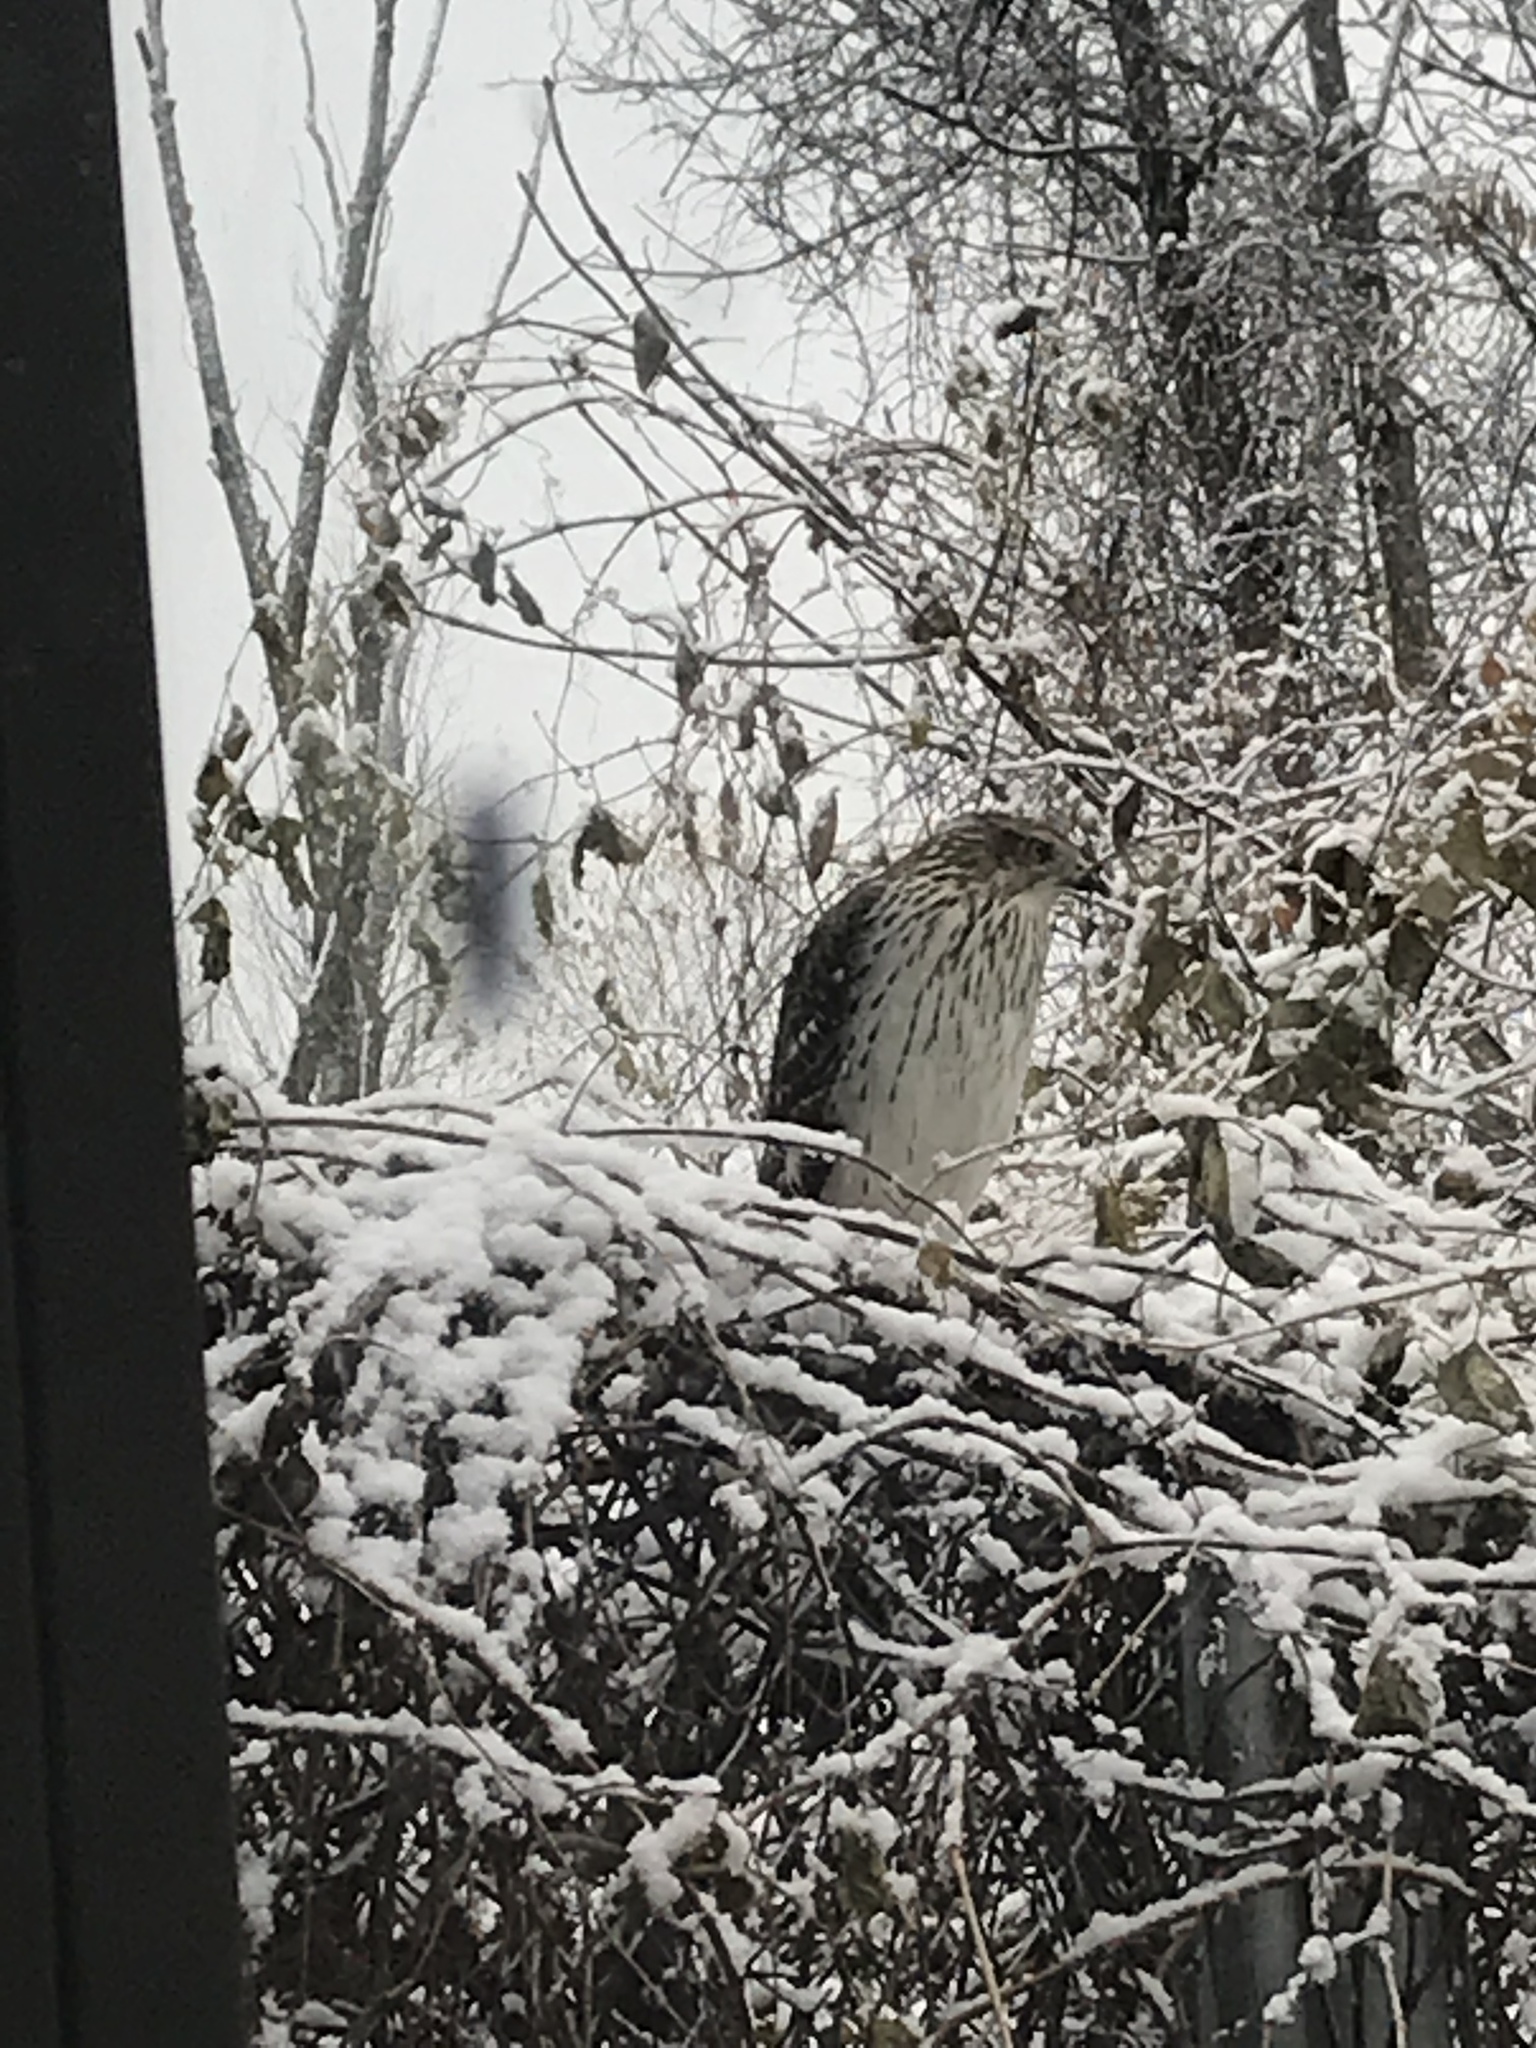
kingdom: Animalia
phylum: Chordata
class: Aves
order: Accipitriformes
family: Accipitridae
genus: Accipiter
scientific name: Accipiter cooperii
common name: Cooper's hawk
